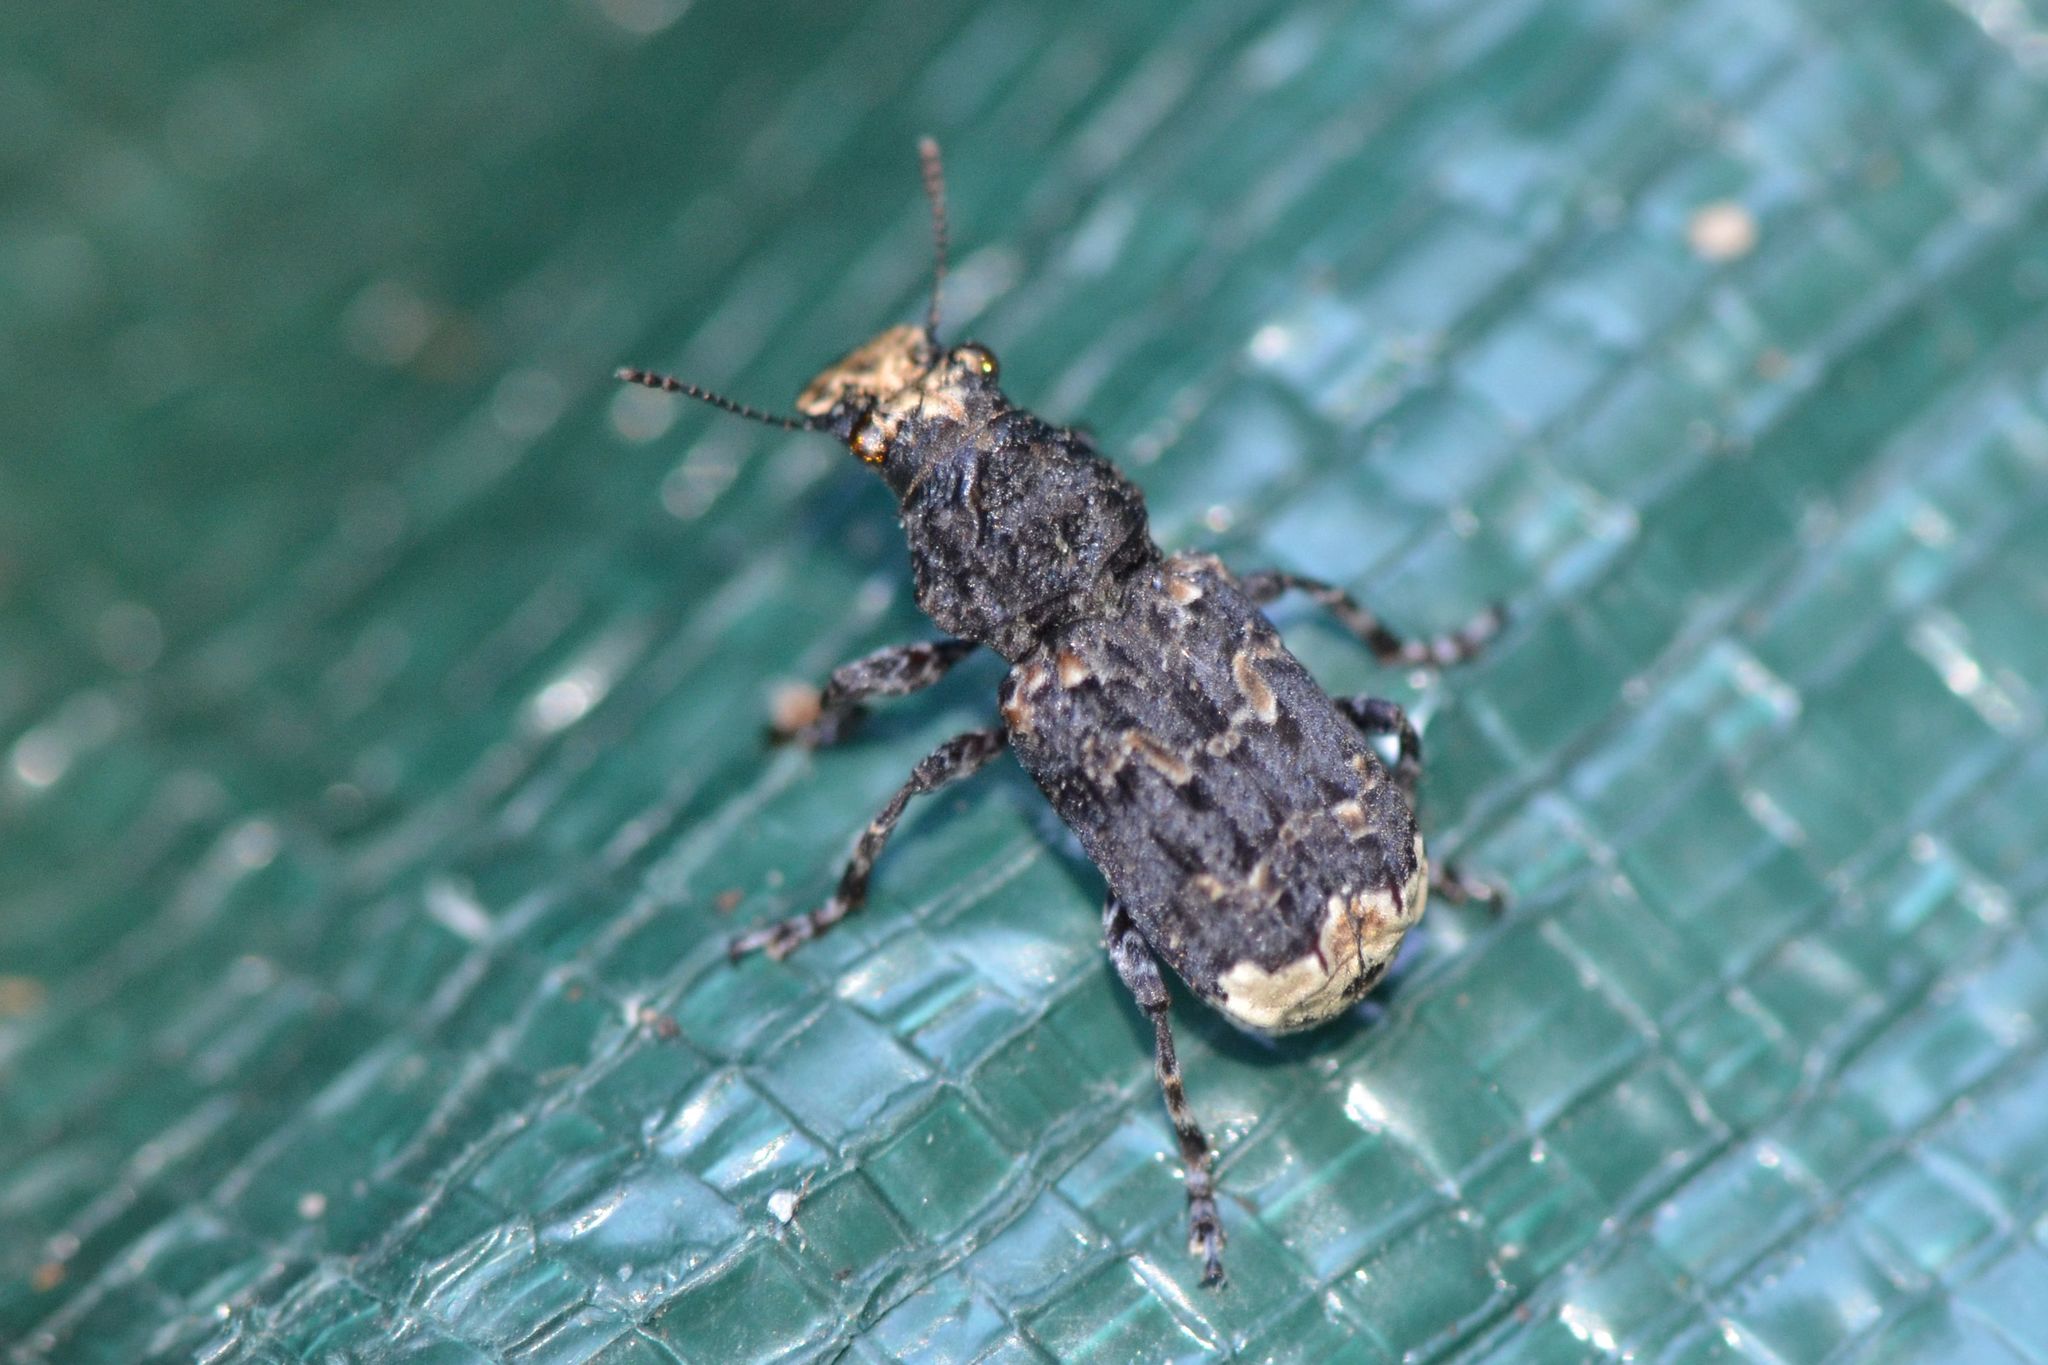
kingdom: Animalia
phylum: Arthropoda
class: Insecta
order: Coleoptera
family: Anthribidae
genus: Platyrhinus
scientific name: Platyrhinus resinosus
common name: Cramp-ball fungus weevil
